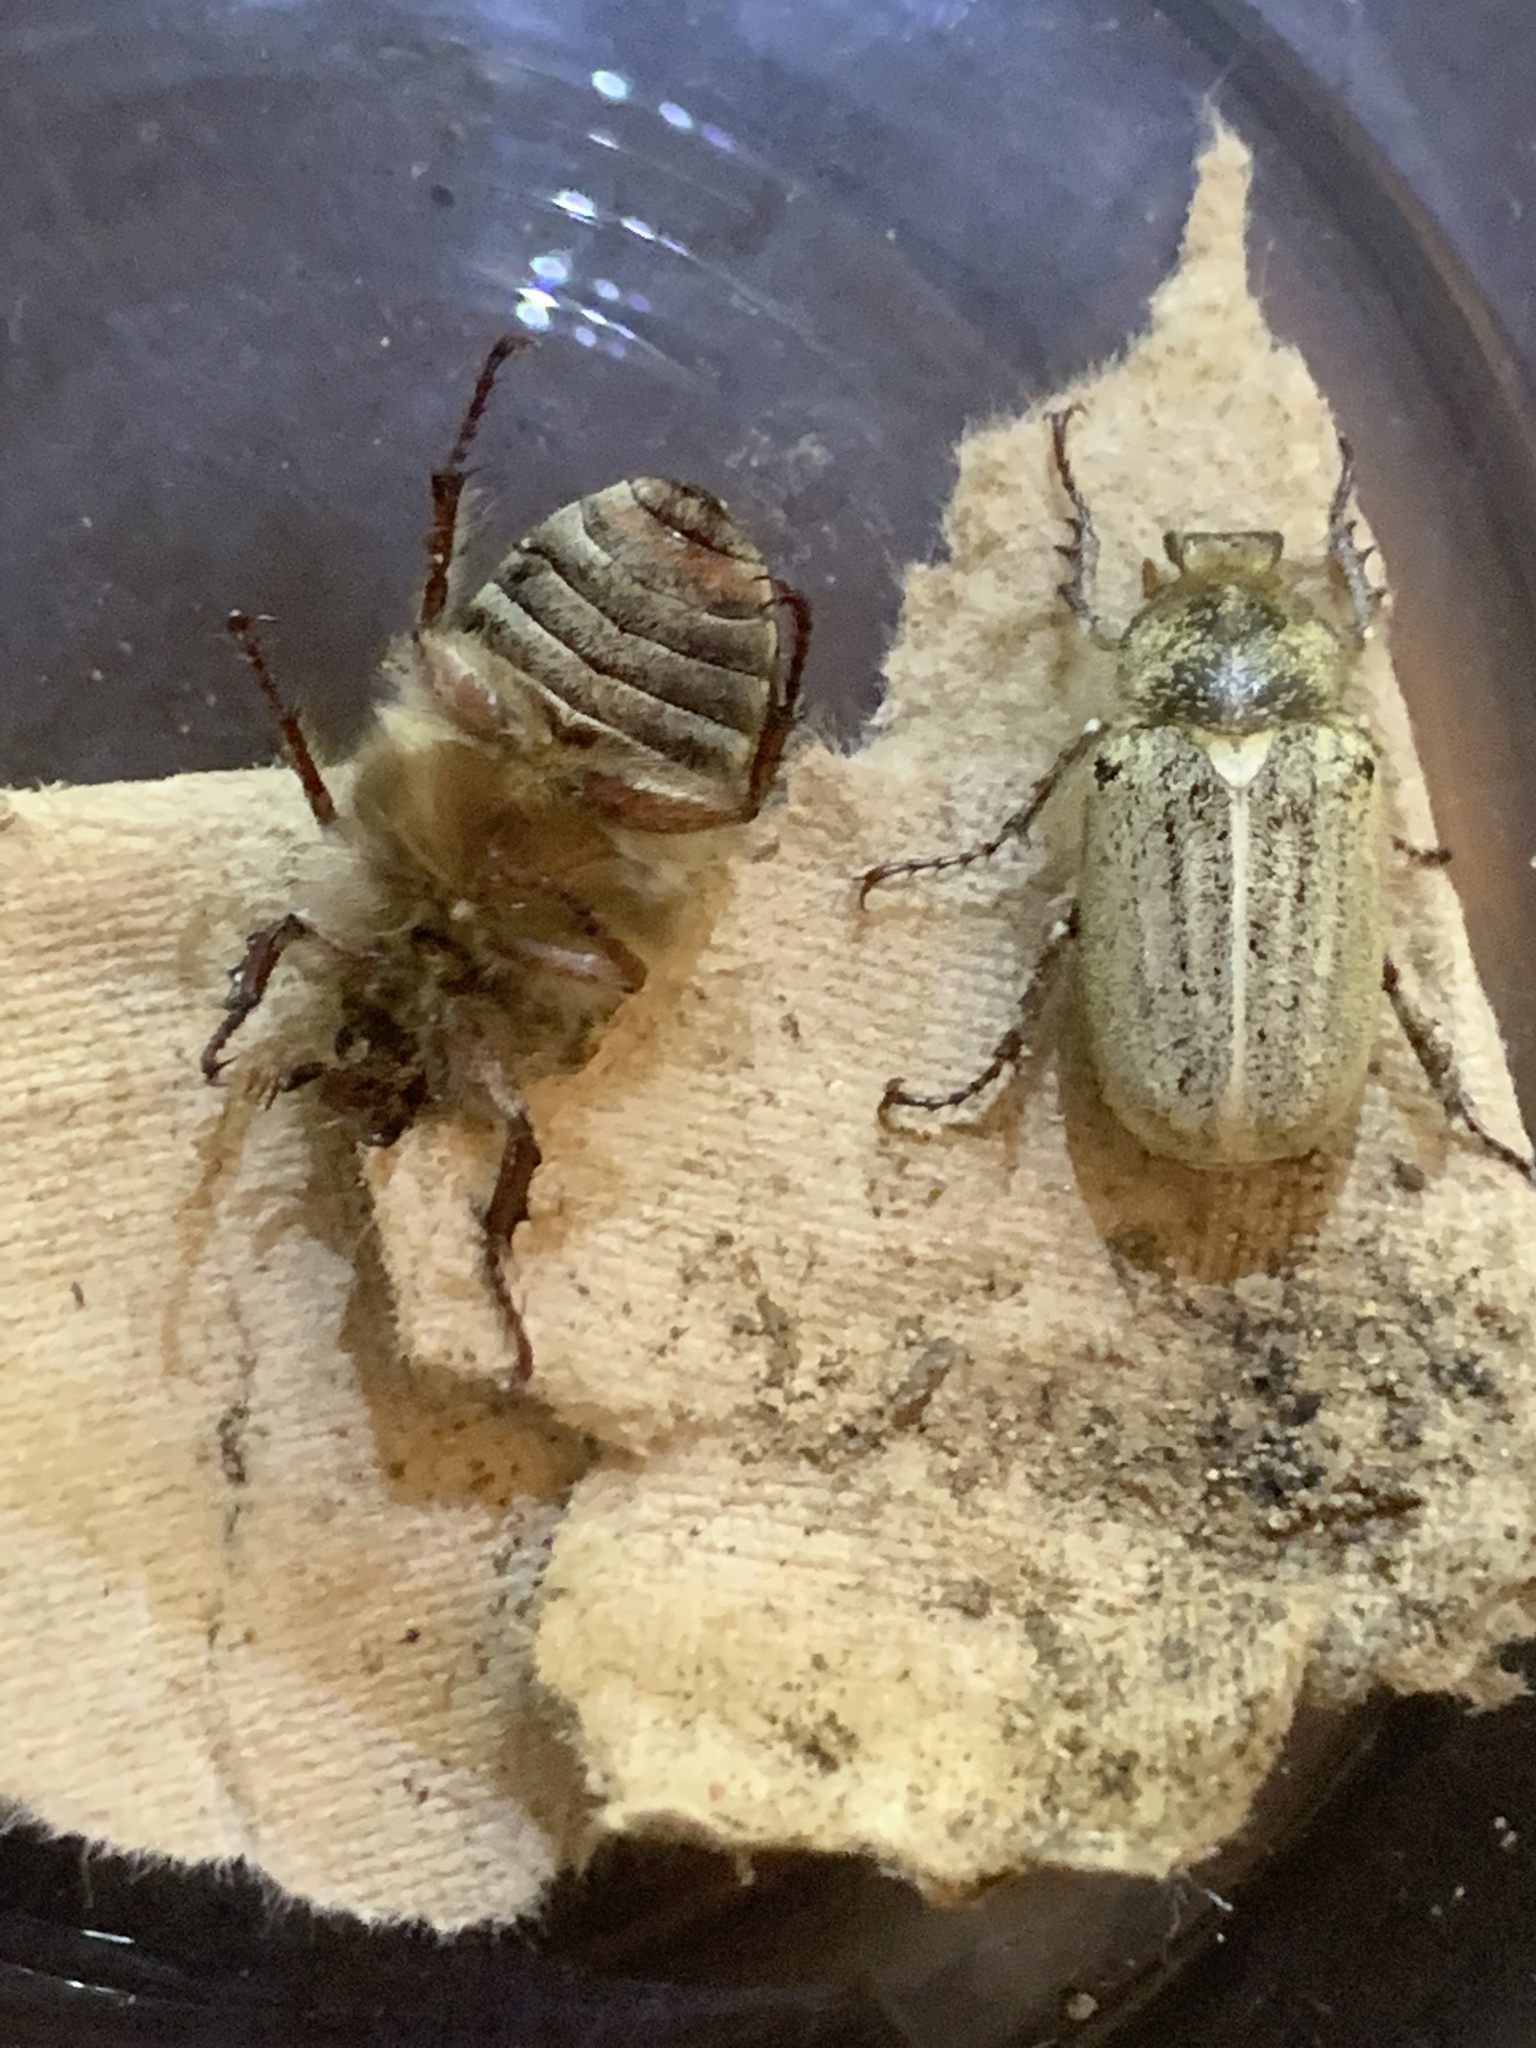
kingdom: Animalia
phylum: Arthropoda
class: Insecta
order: Coleoptera
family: Scarabaeidae
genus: Amblonoxia
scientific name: Amblonoxia harfordi
